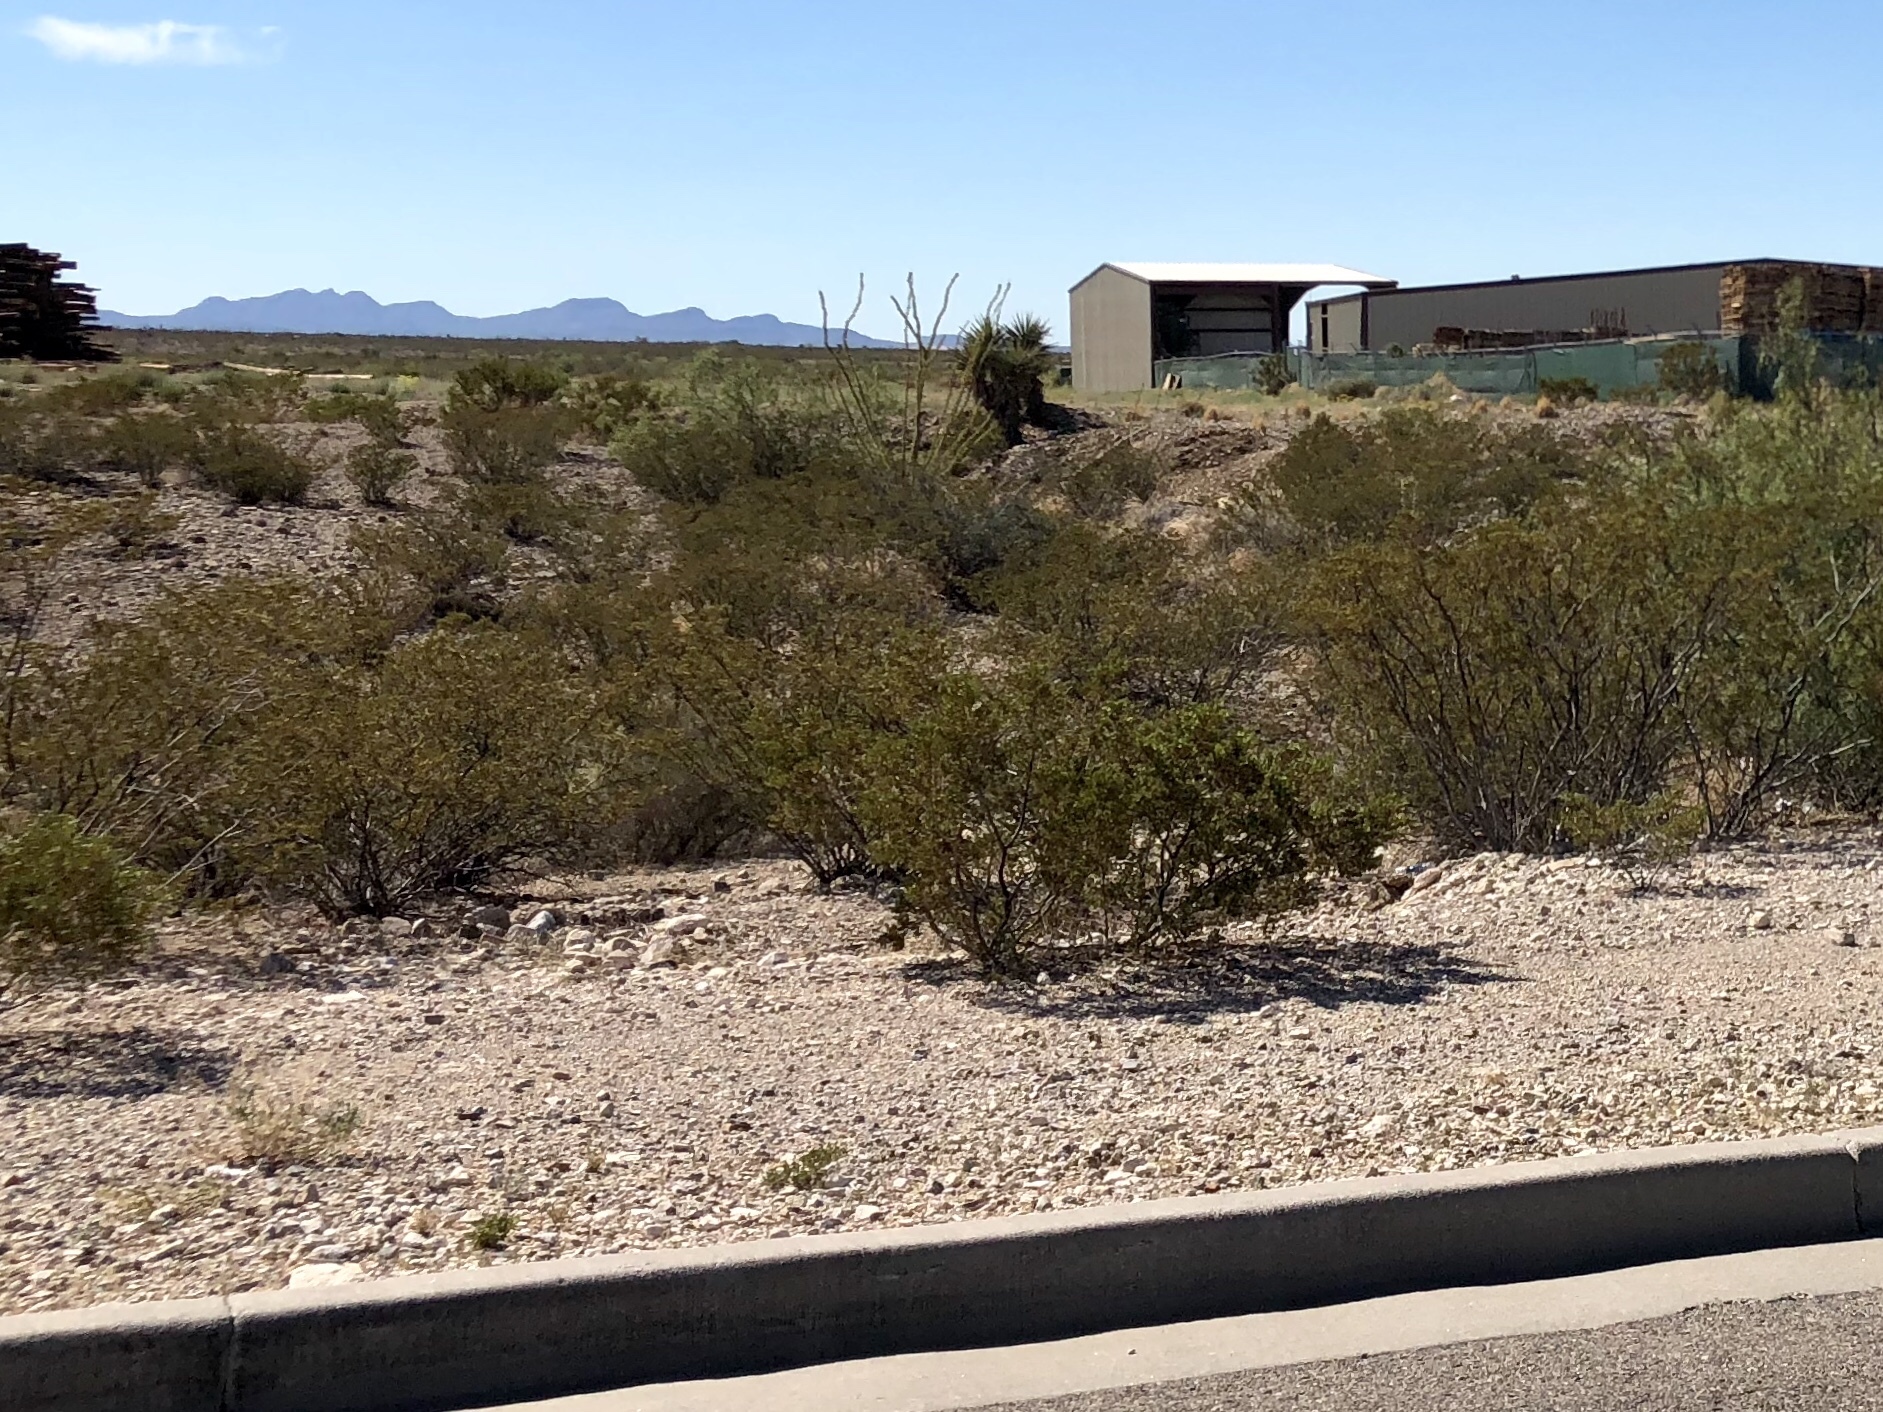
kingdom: Plantae
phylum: Tracheophyta
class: Magnoliopsida
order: Zygophyllales
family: Zygophyllaceae
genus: Larrea
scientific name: Larrea tridentata
